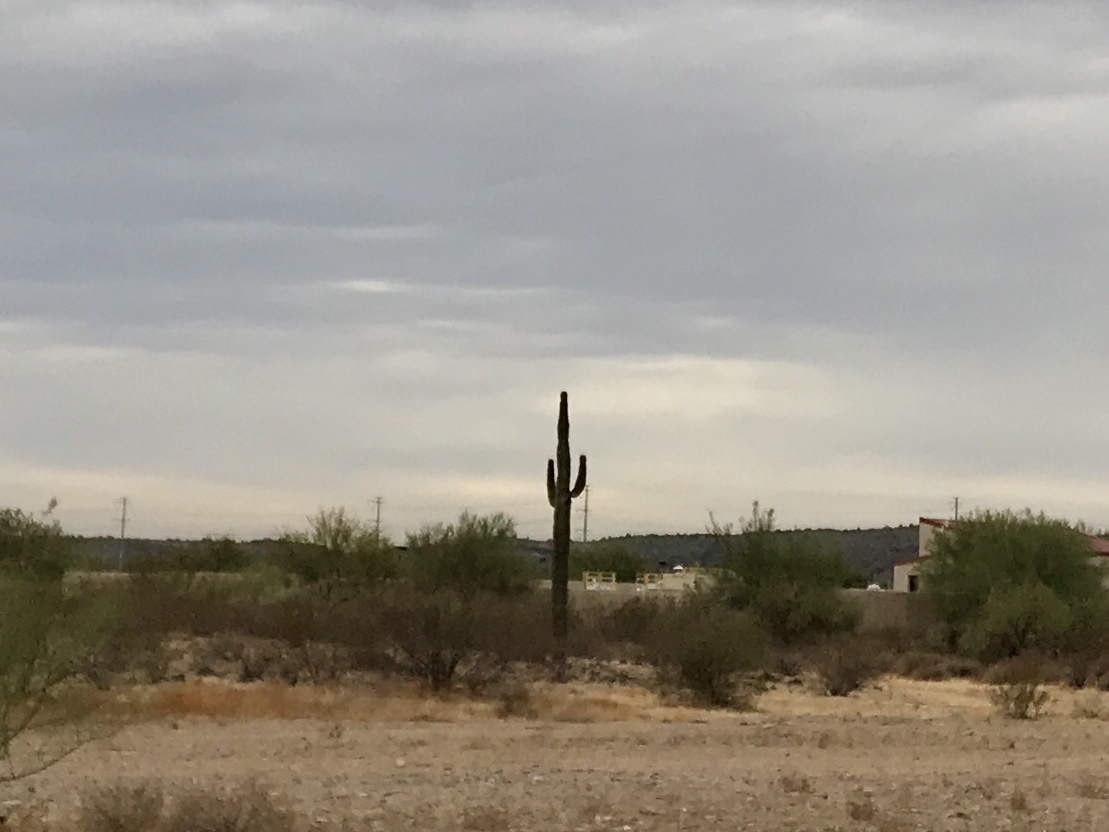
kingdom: Plantae
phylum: Tracheophyta
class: Magnoliopsida
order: Caryophyllales
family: Cactaceae
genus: Carnegiea
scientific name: Carnegiea gigantea
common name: Saguaro
